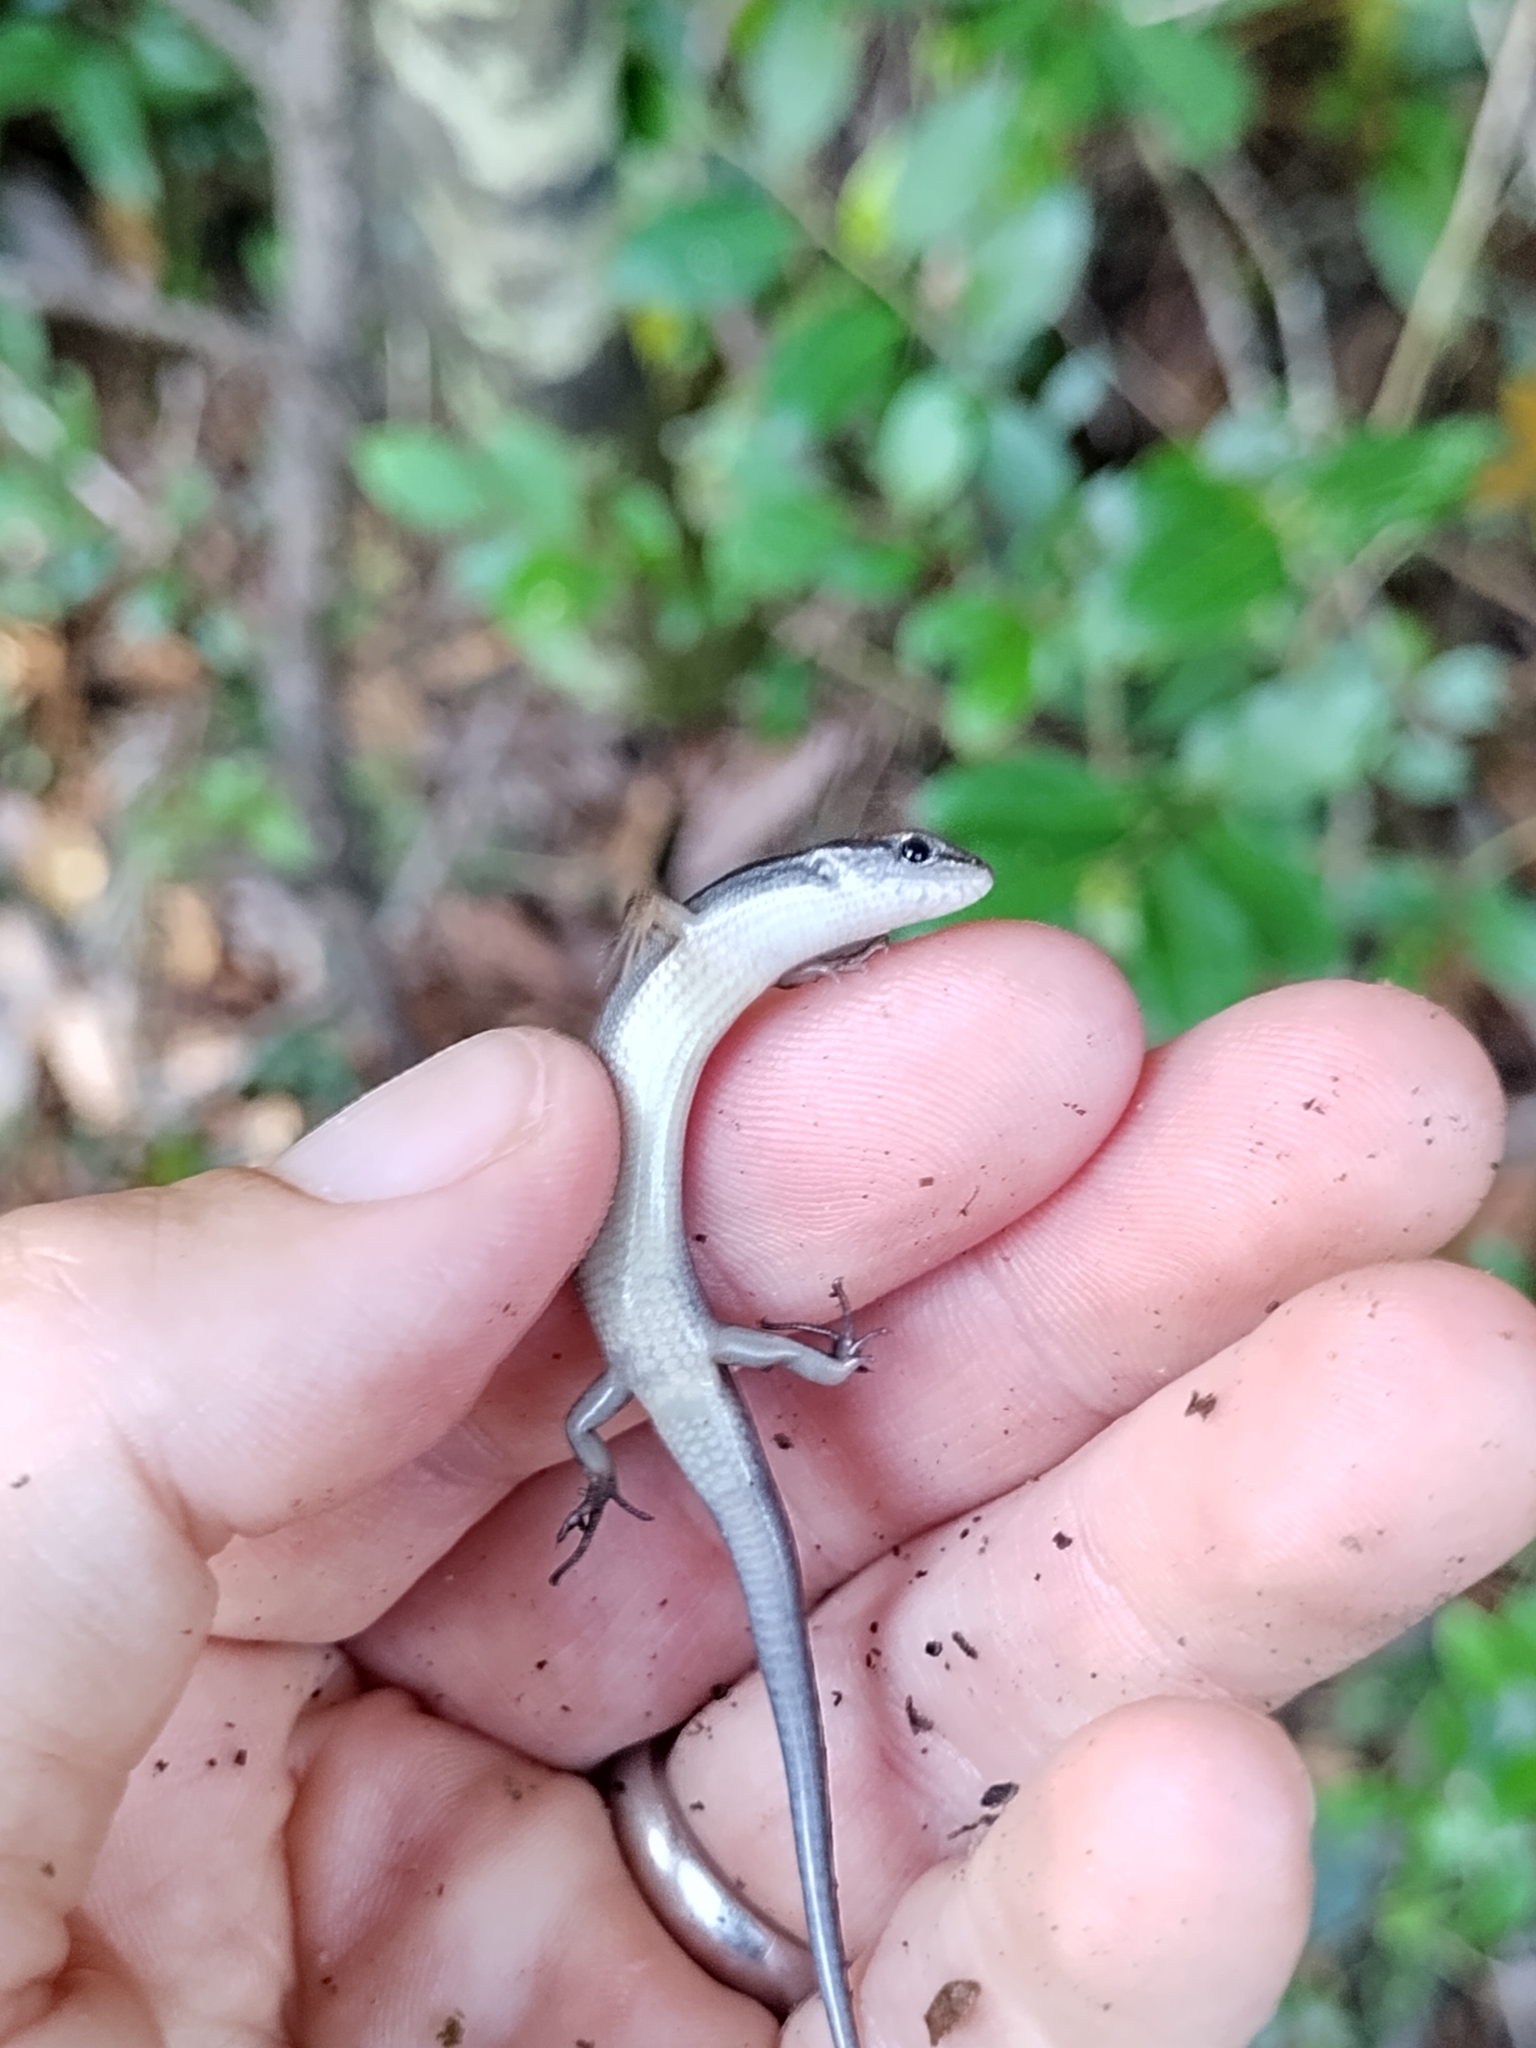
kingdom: Animalia
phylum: Chordata
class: Squamata
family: Scincidae
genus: Scincella
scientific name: Scincella lateralis
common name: Ground skink
